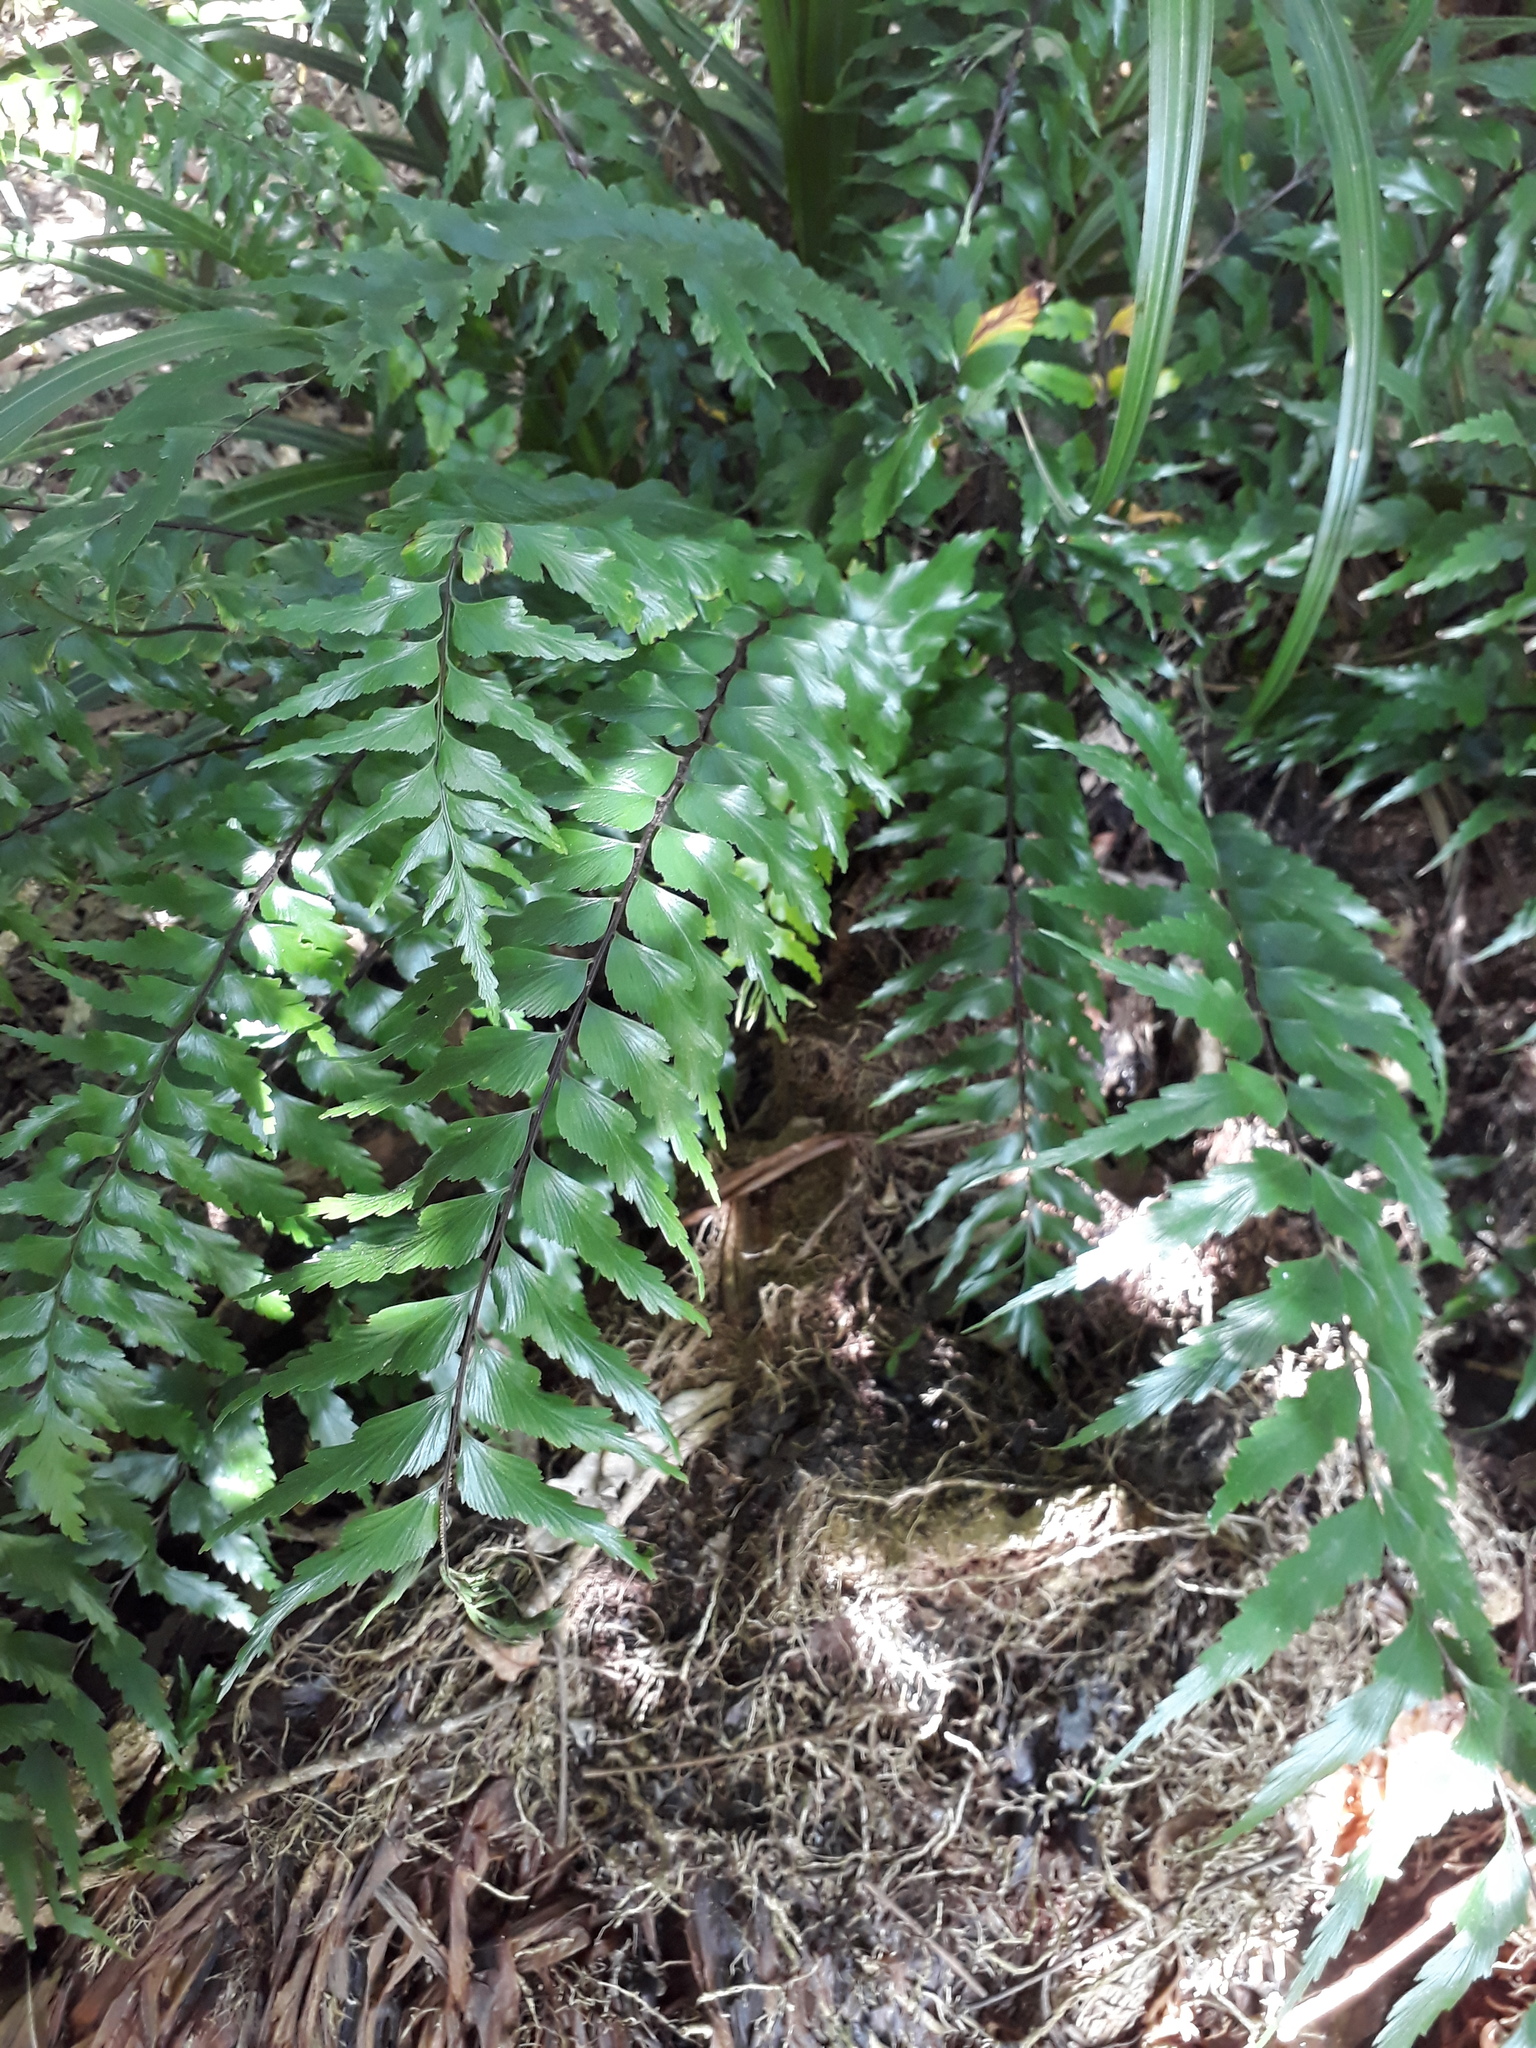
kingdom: Plantae
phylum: Tracheophyta
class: Polypodiopsida
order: Polypodiales
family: Aspleniaceae
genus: Asplenium
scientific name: Asplenium polyodon
